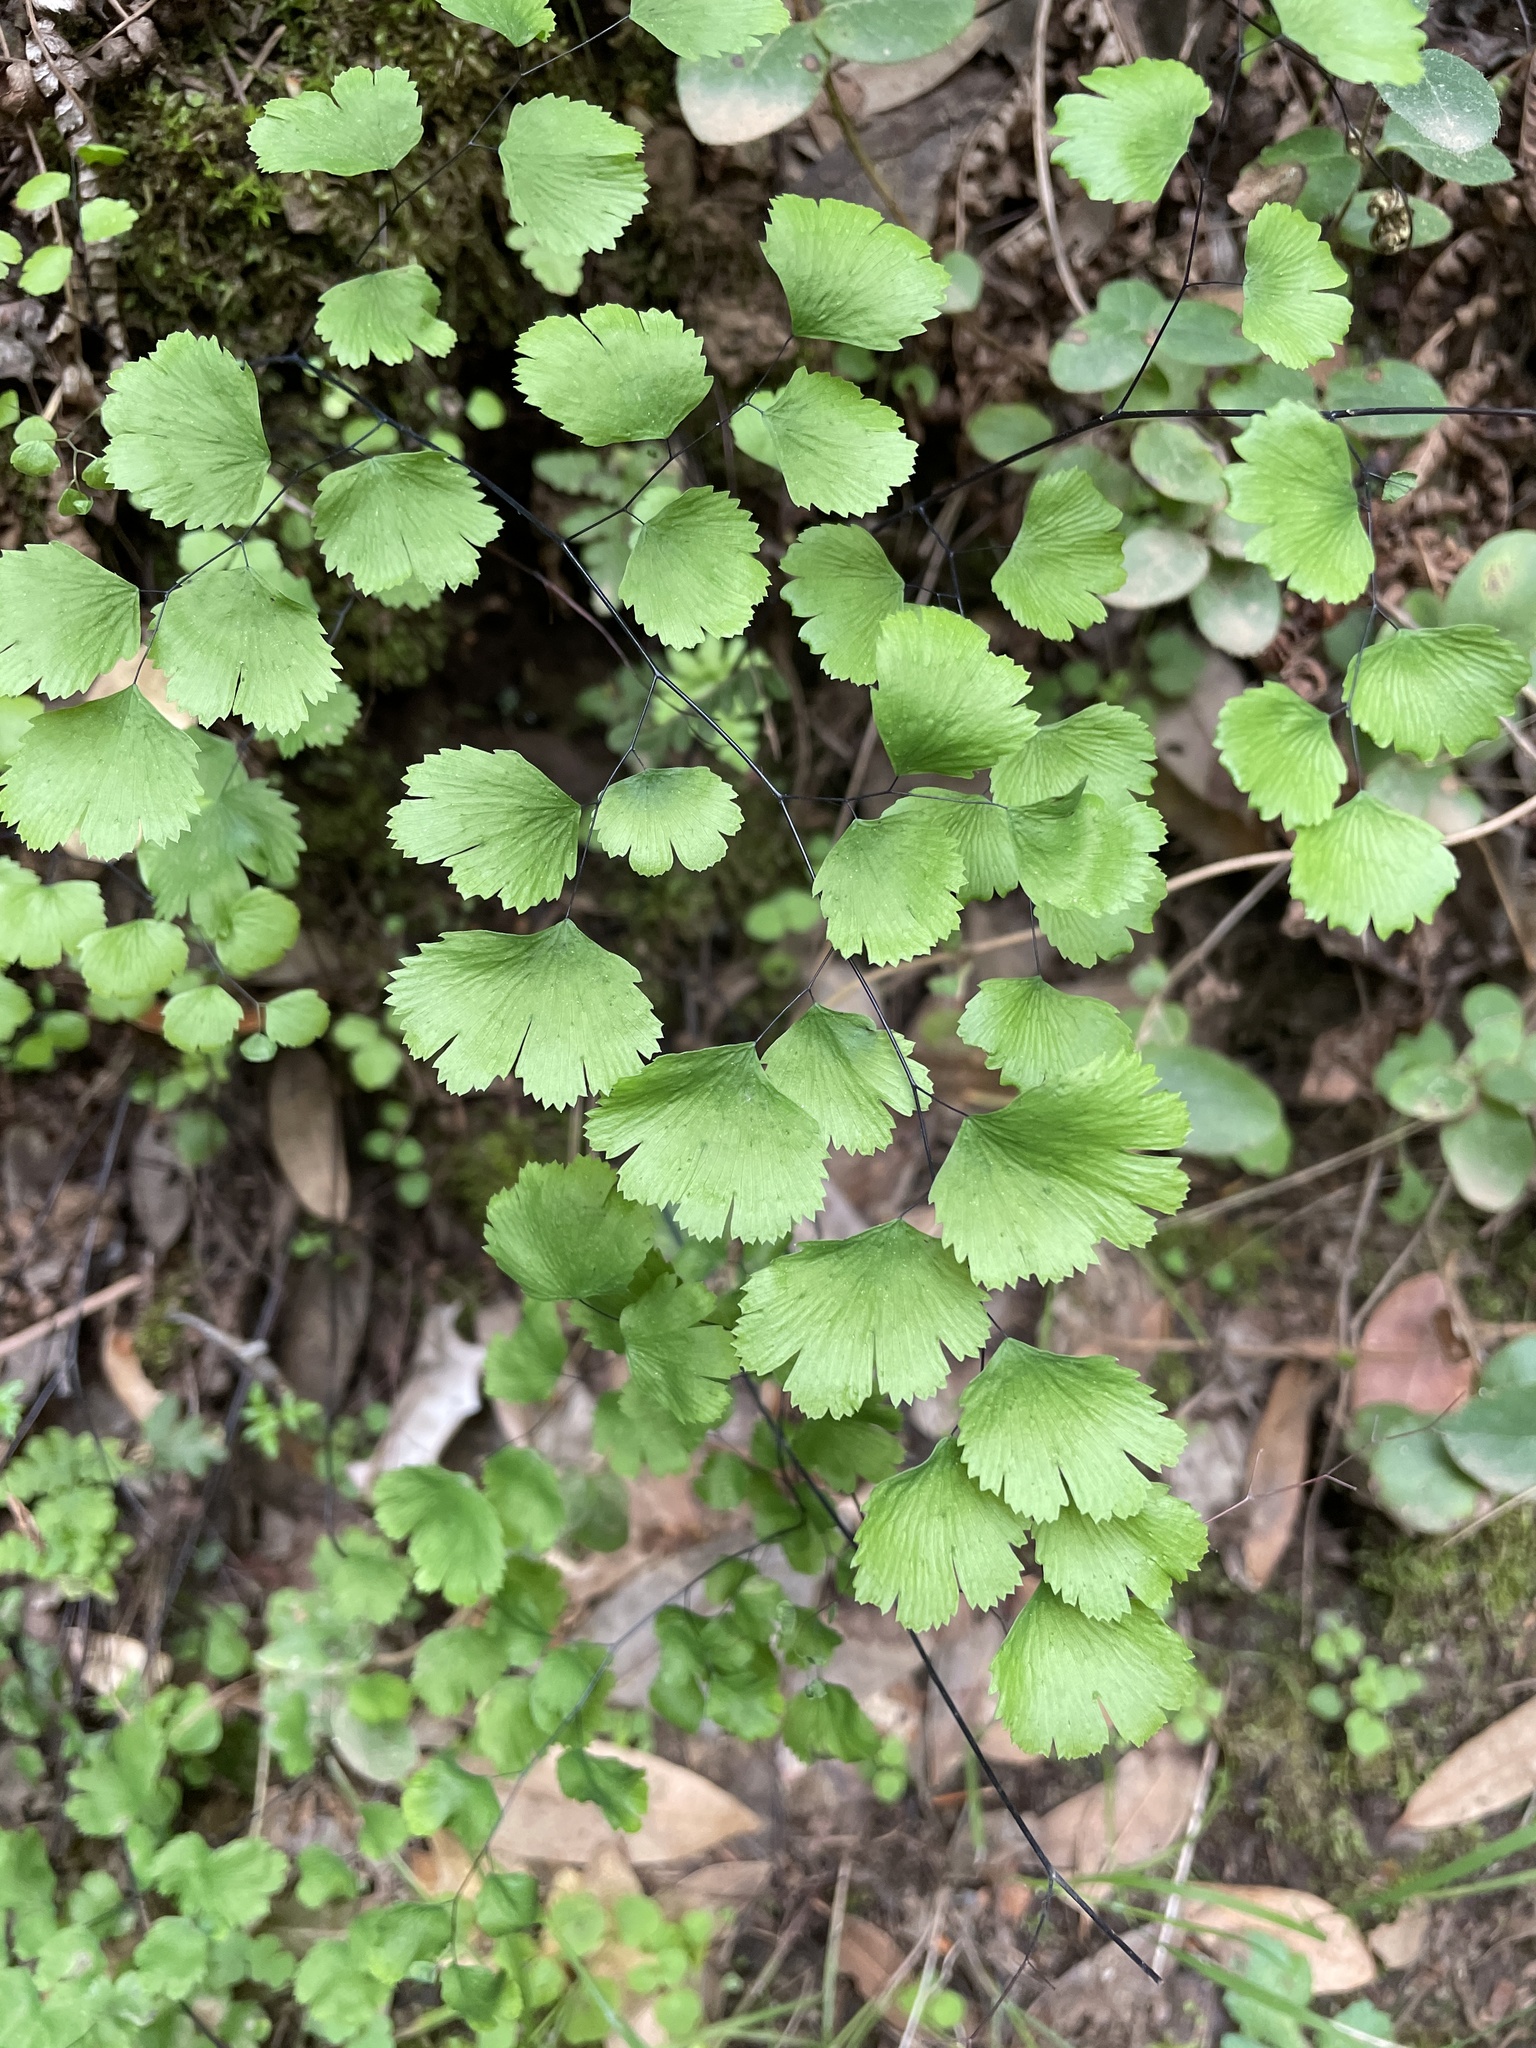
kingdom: Plantae
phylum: Tracheophyta
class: Polypodiopsida
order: Polypodiales
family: Pteridaceae
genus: Adiantum
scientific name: Adiantum jordanii
